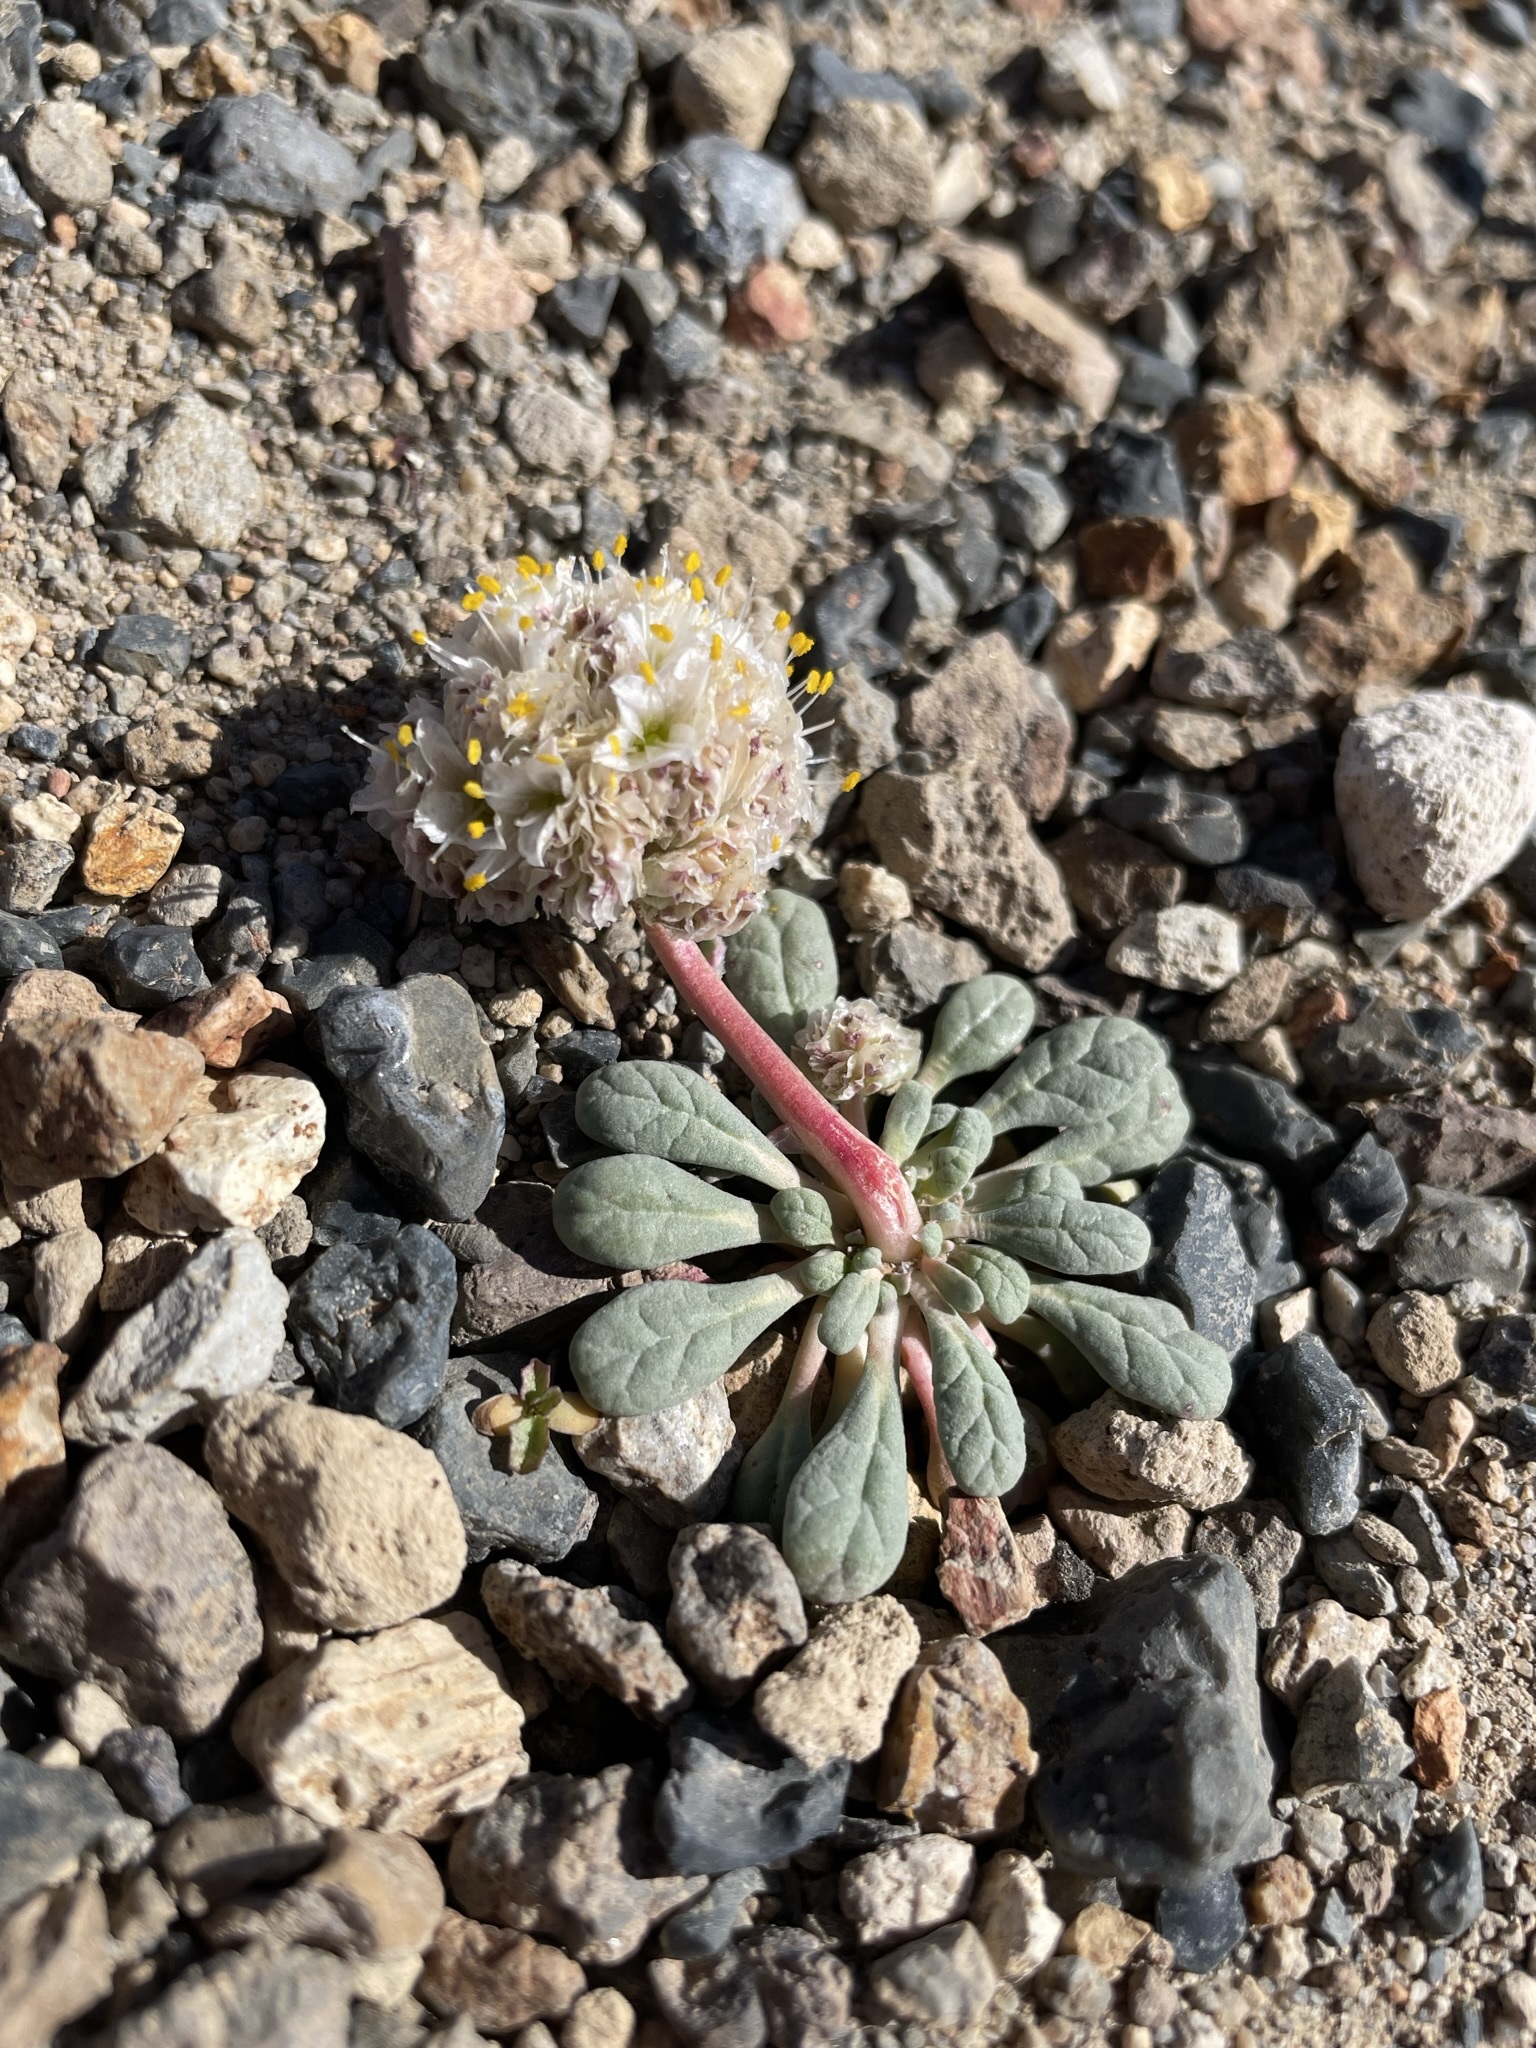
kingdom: Plantae
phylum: Tracheophyta
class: Magnoliopsida
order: Caryophyllales
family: Montiaceae
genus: Calyptridium
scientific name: Calyptridium umbellatum
